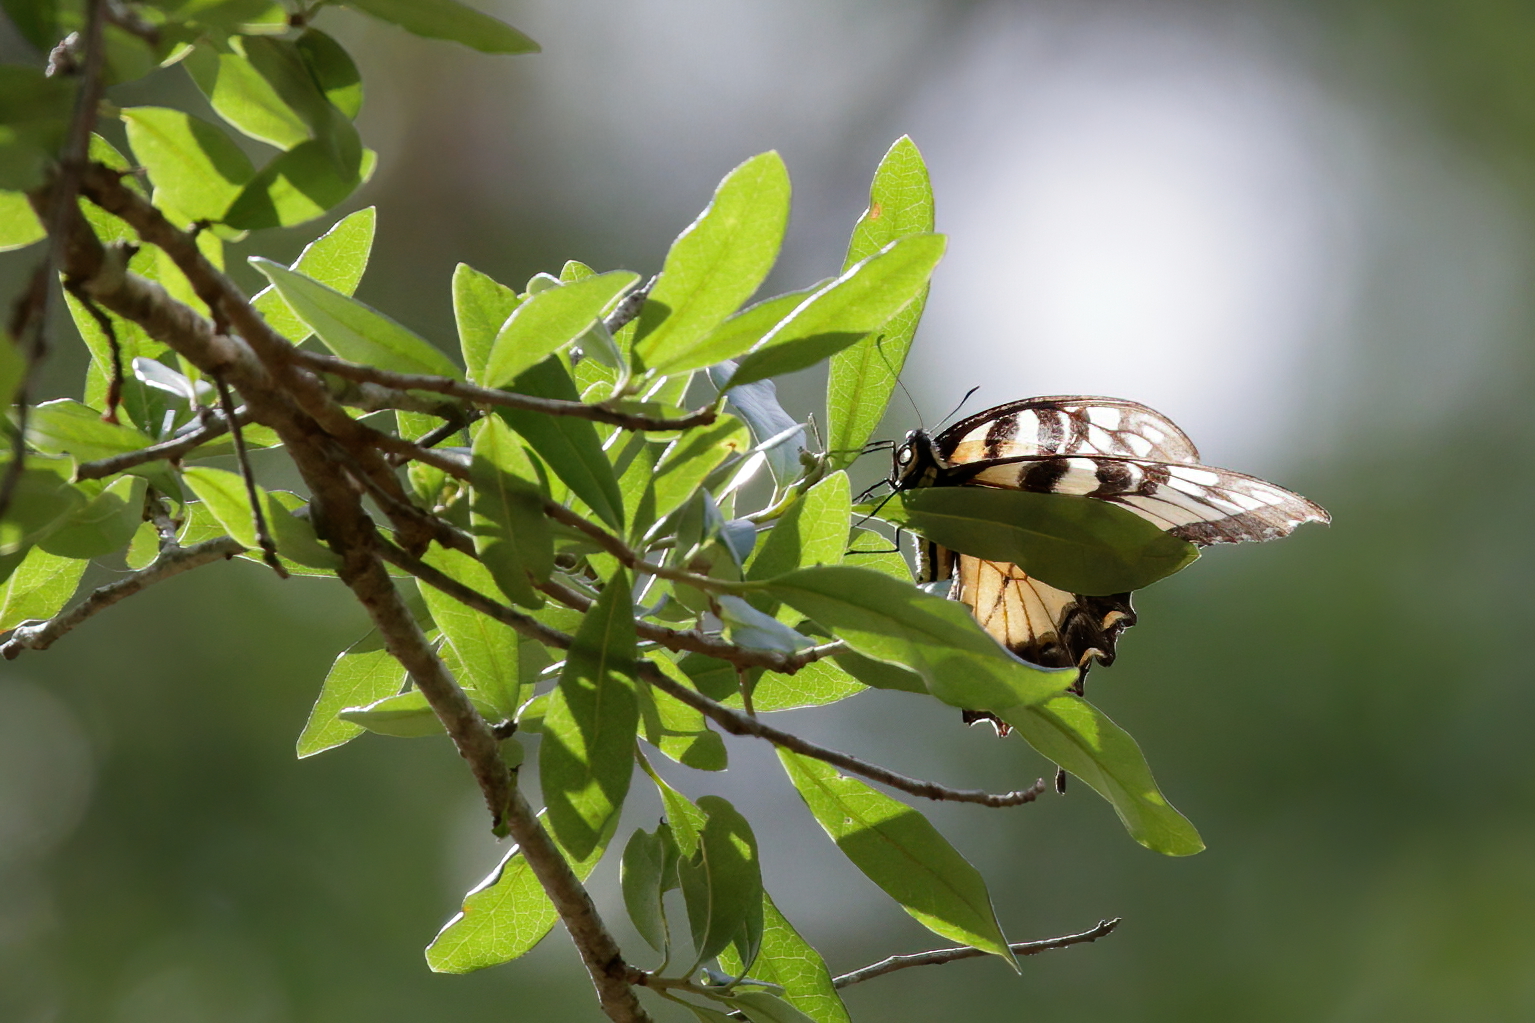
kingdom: Animalia
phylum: Arthropoda
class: Insecta
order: Lepidoptera
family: Papilionidae
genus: Papilio
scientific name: Papilio glaucus
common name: Tiger swallowtail
